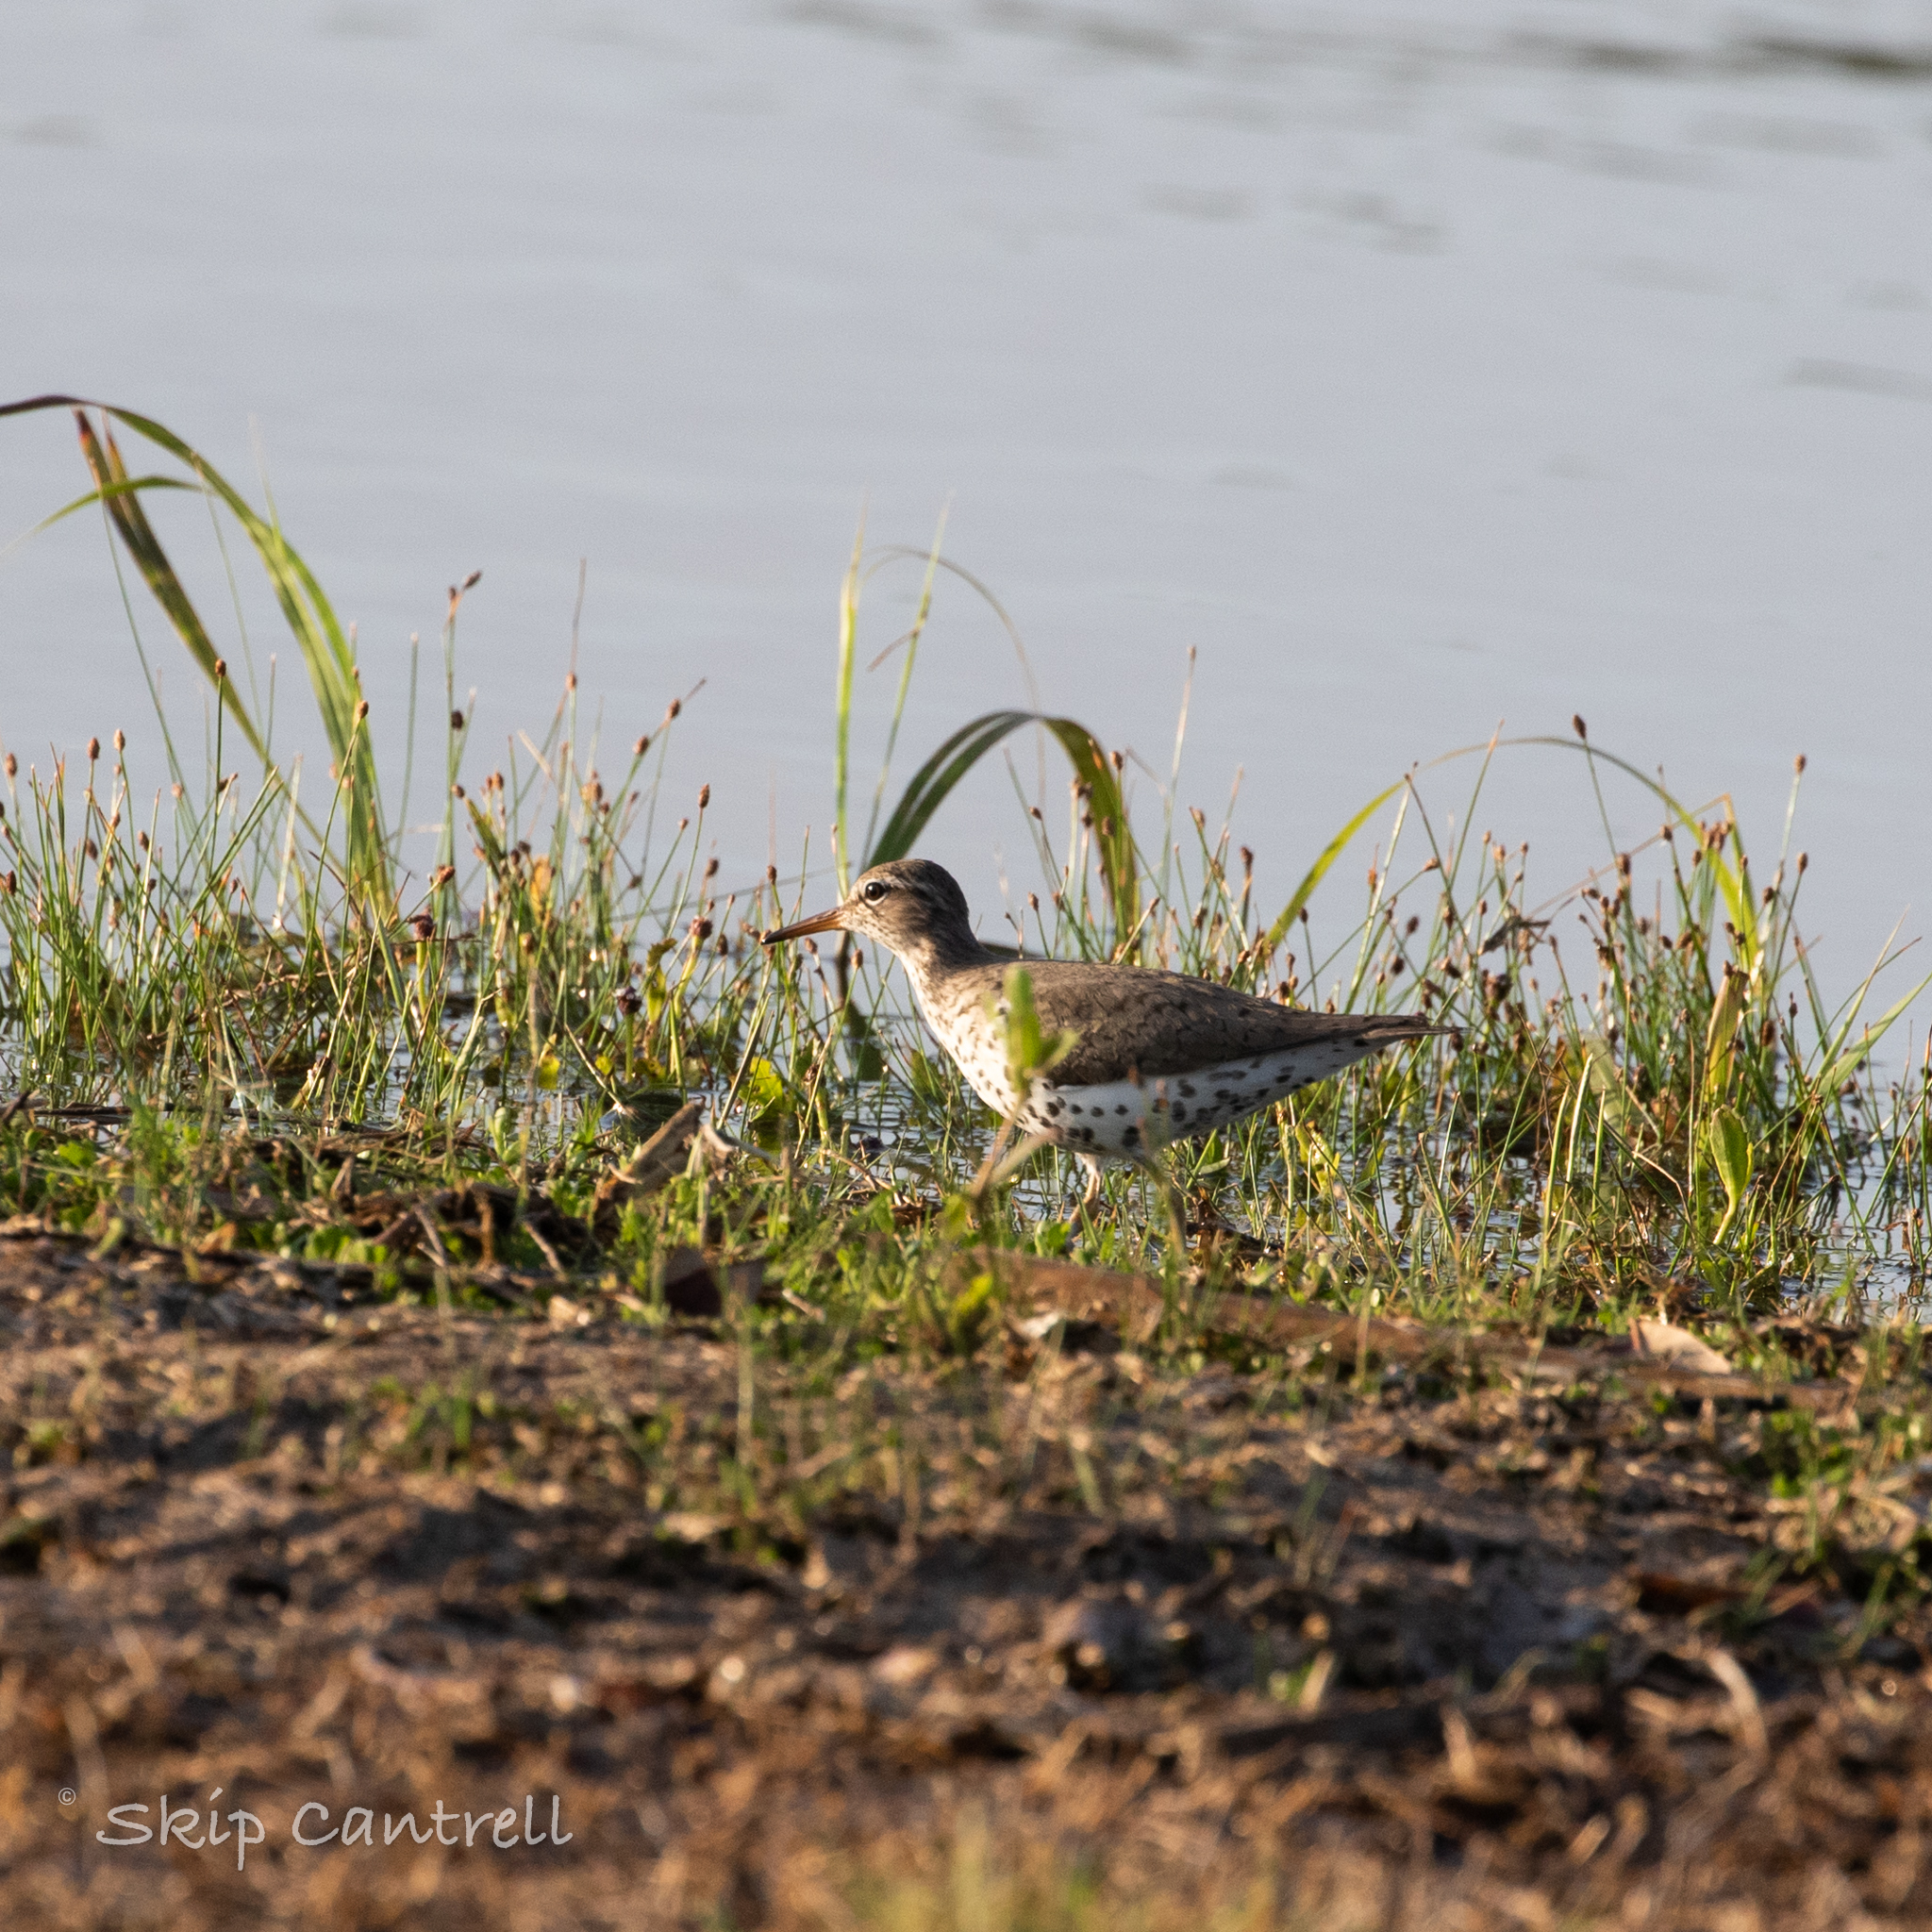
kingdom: Animalia
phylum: Chordata
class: Aves
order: Charadriiformes
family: Scolopacidae
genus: Actitis
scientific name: Actitis macularius
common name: Spotted sandpiper
